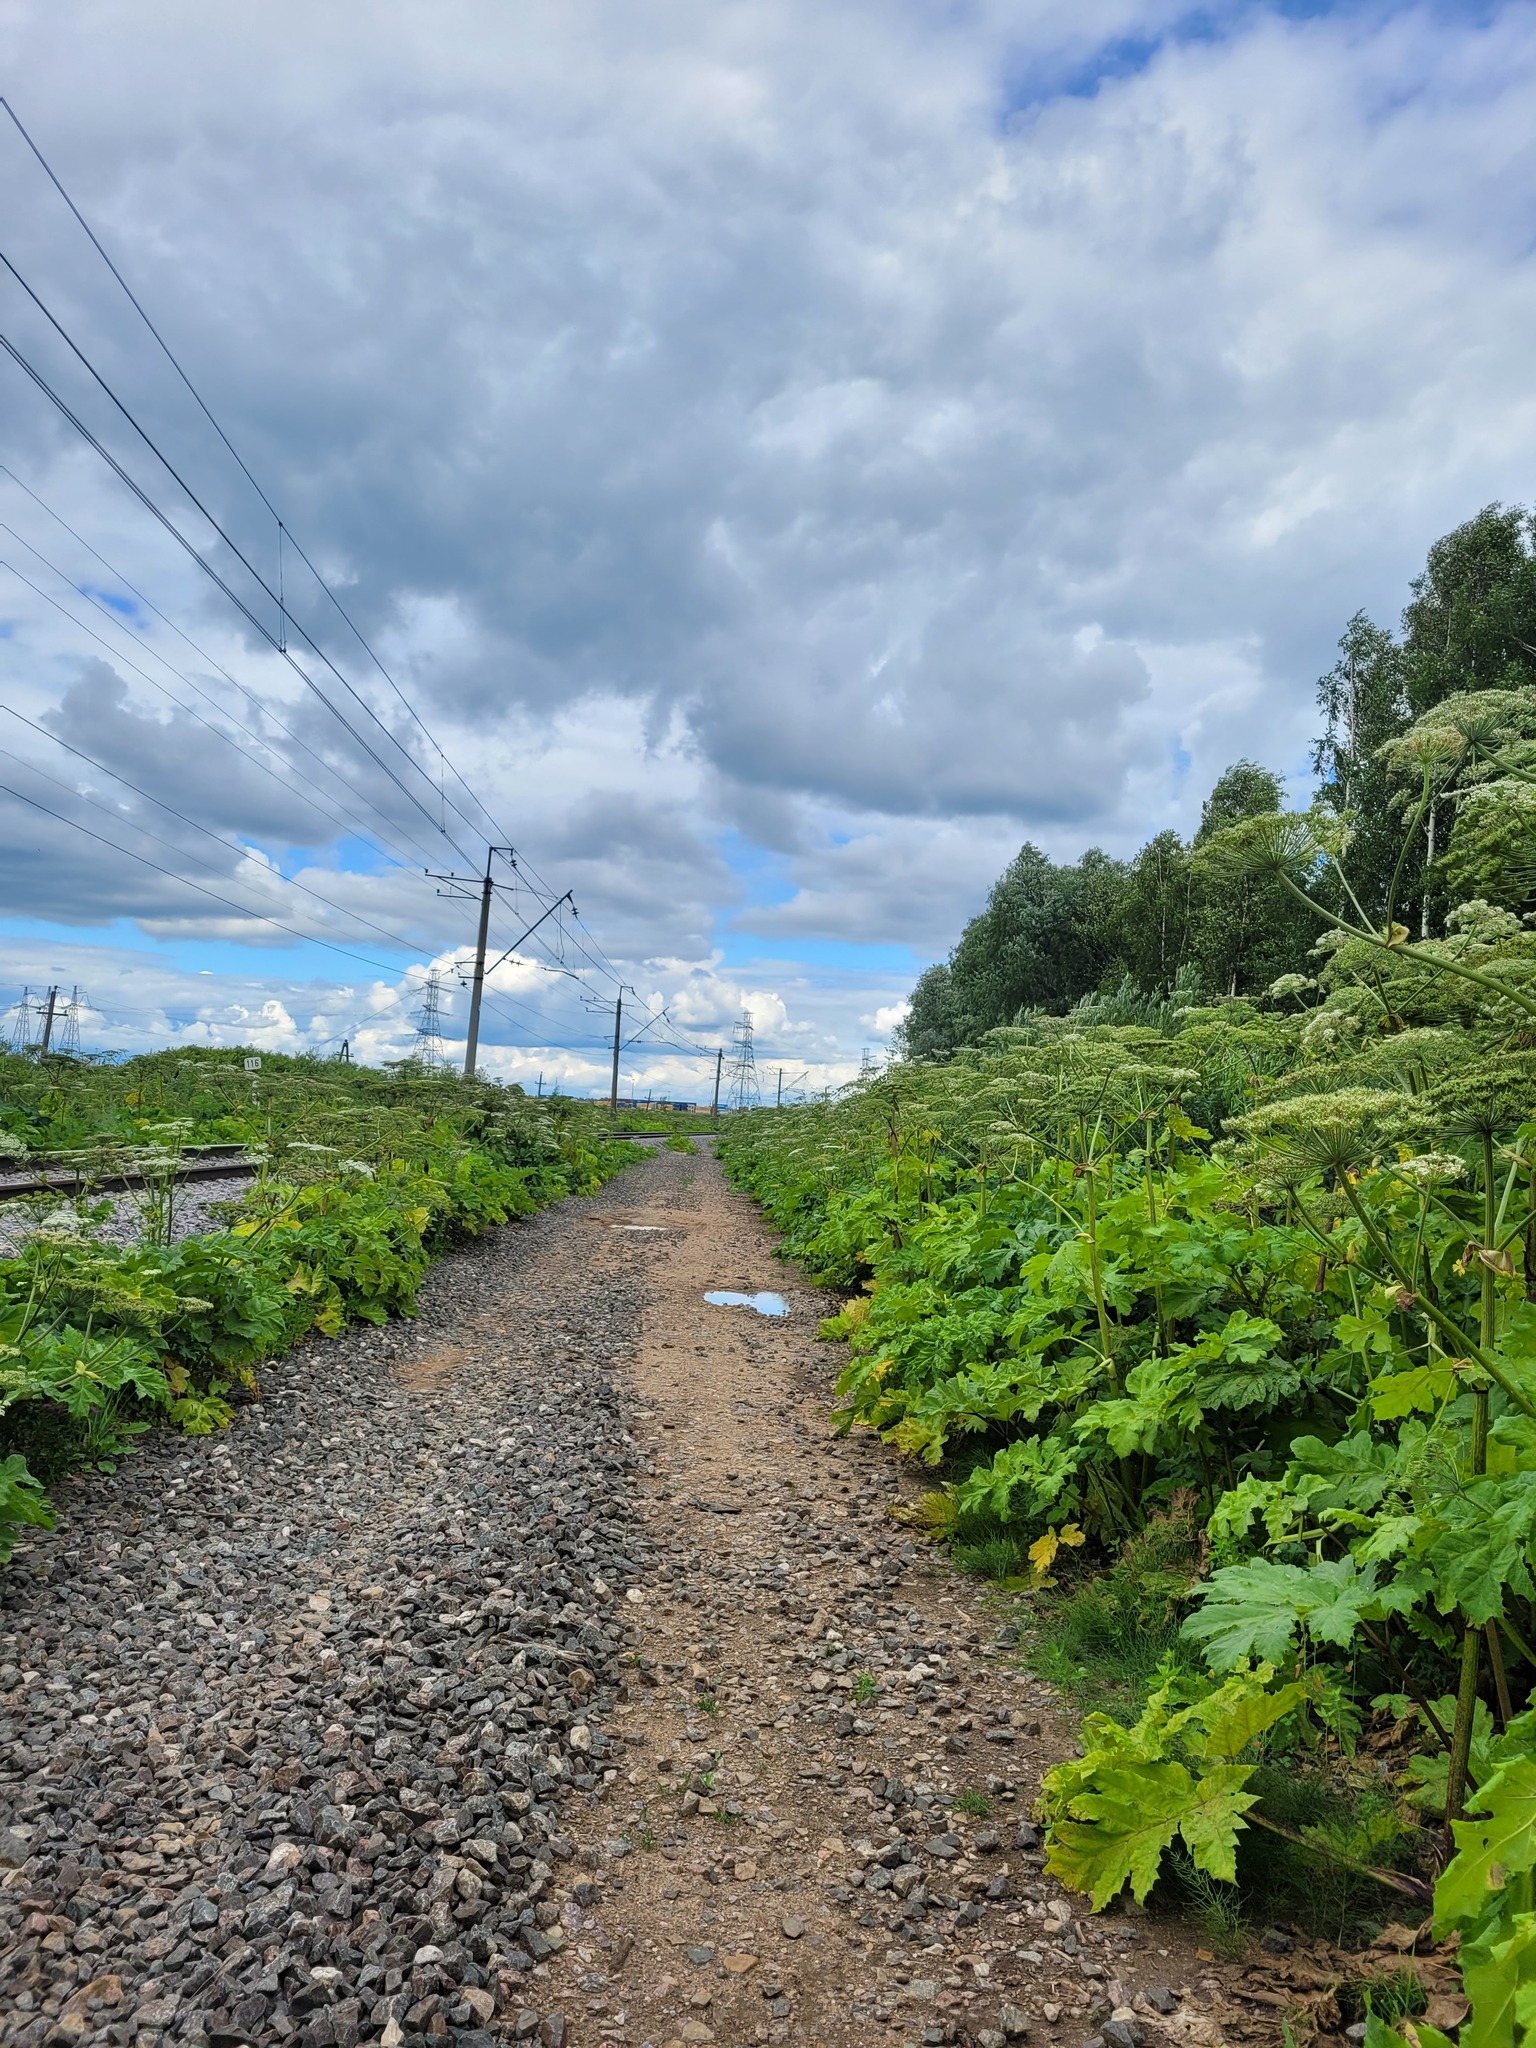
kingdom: Plantae
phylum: Tracheophyta
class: Magnoliopsida
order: Apiales
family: Apiaceae
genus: Heracleum
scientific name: Heracleum sosnowskyi
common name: Sosnowsky's hogweed
